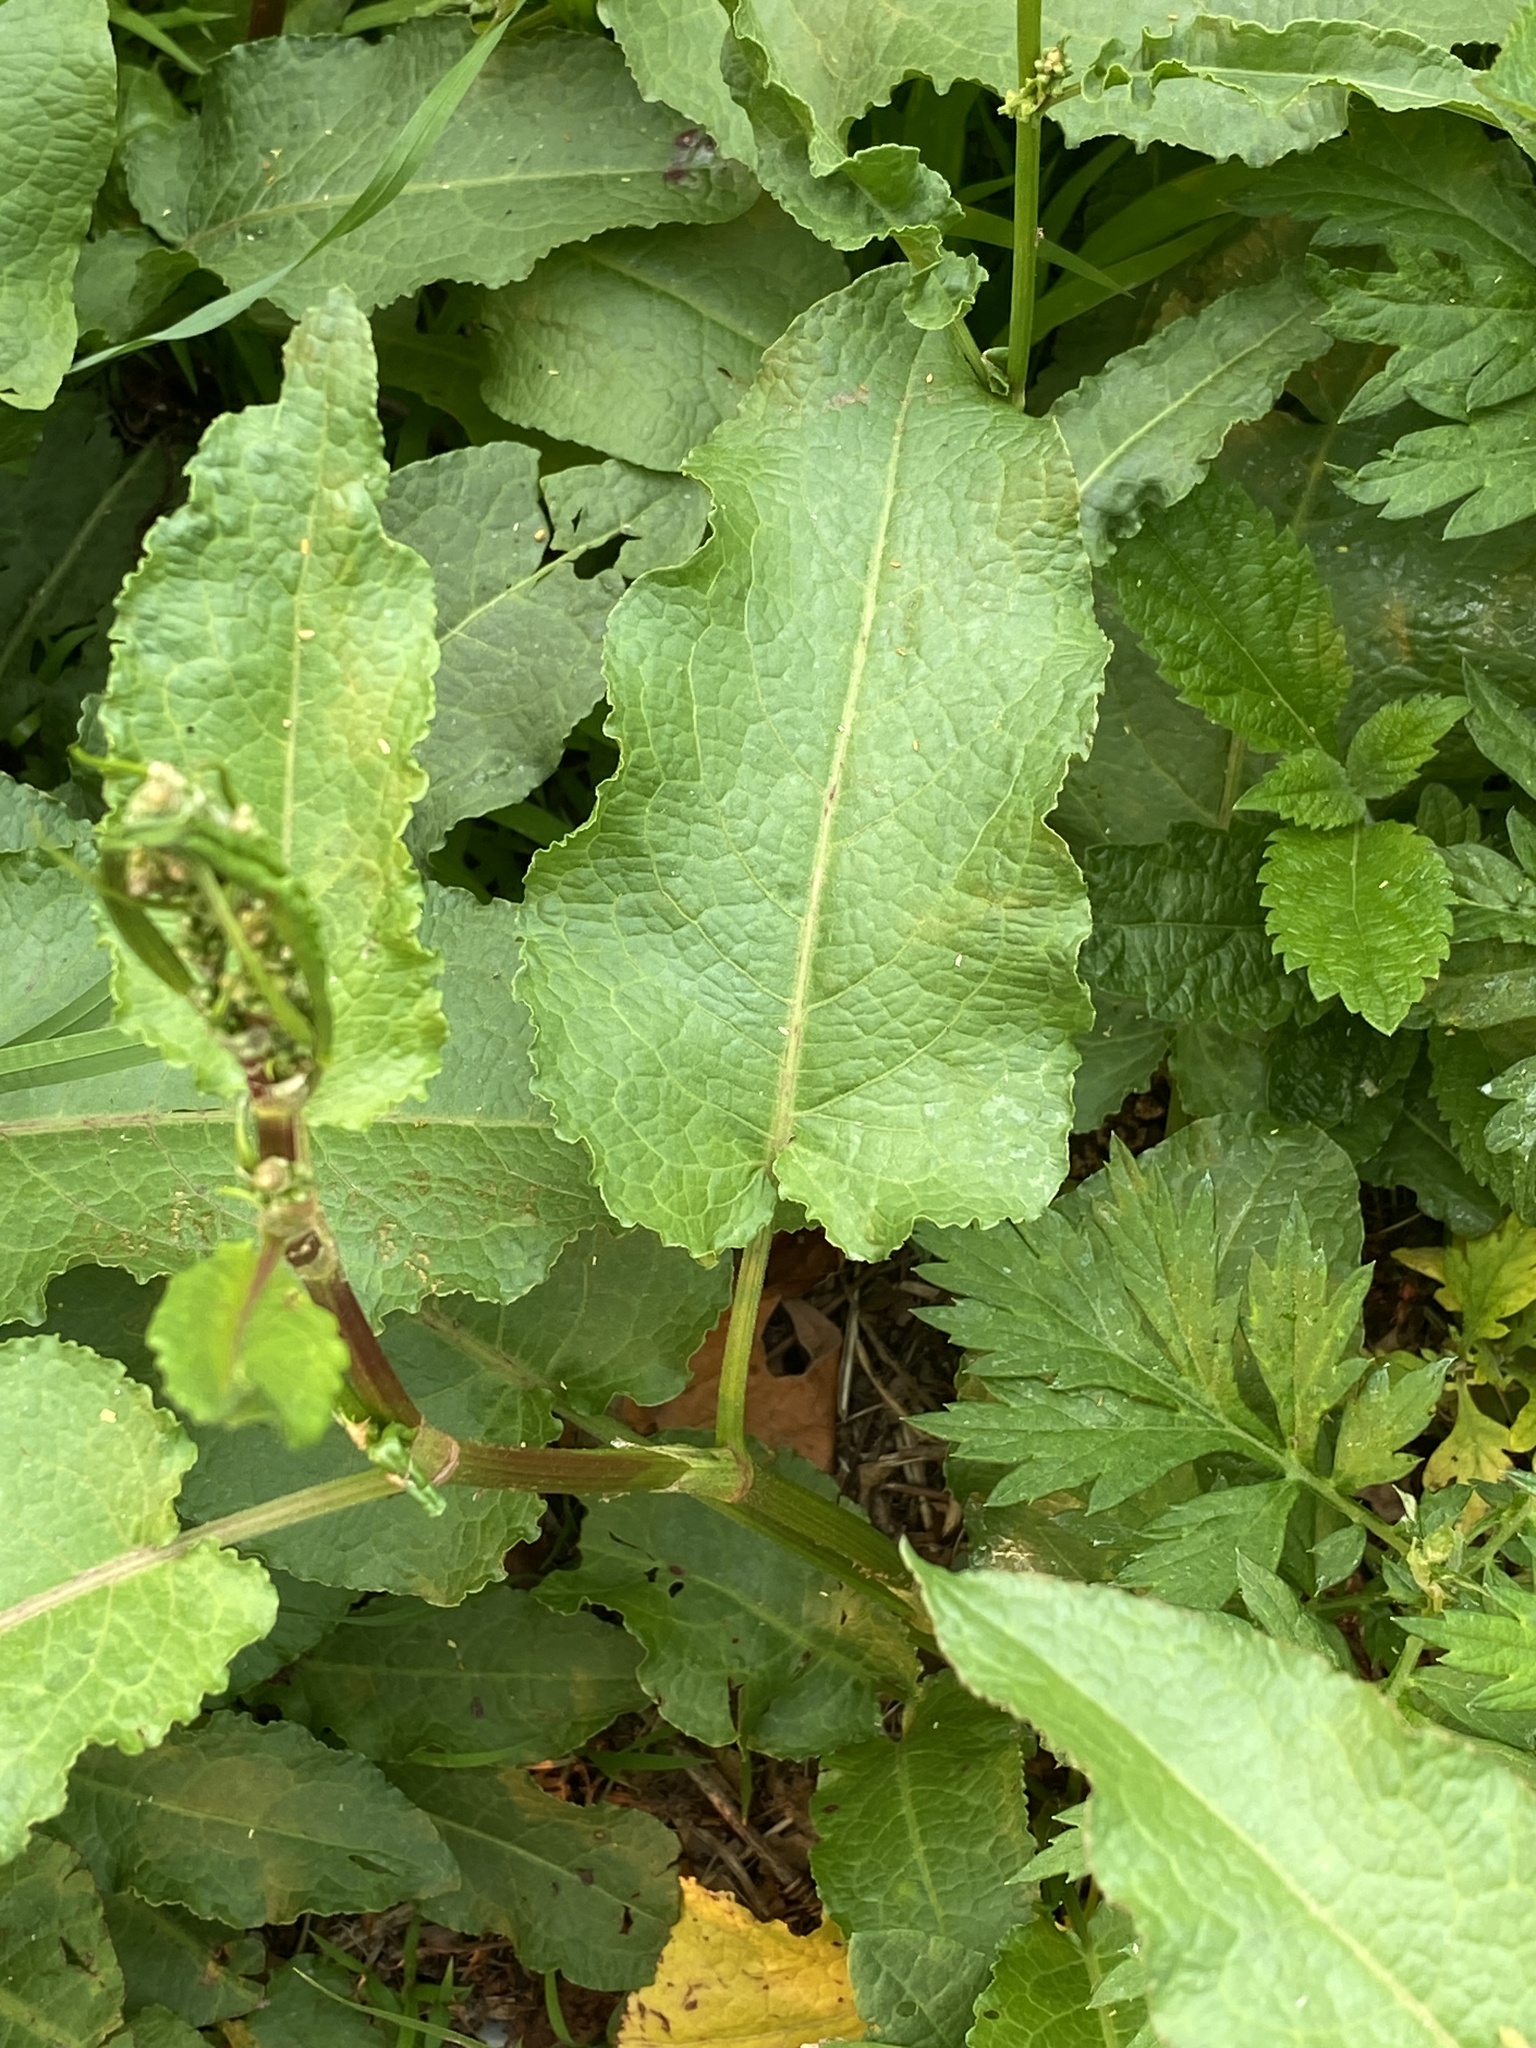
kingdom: Plantae
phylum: Tracheophyta
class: Magnoliopsida
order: Caryophyllales
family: Polygonaceae
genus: Rumex
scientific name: Rumex obtusifolius
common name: Bitter dock
